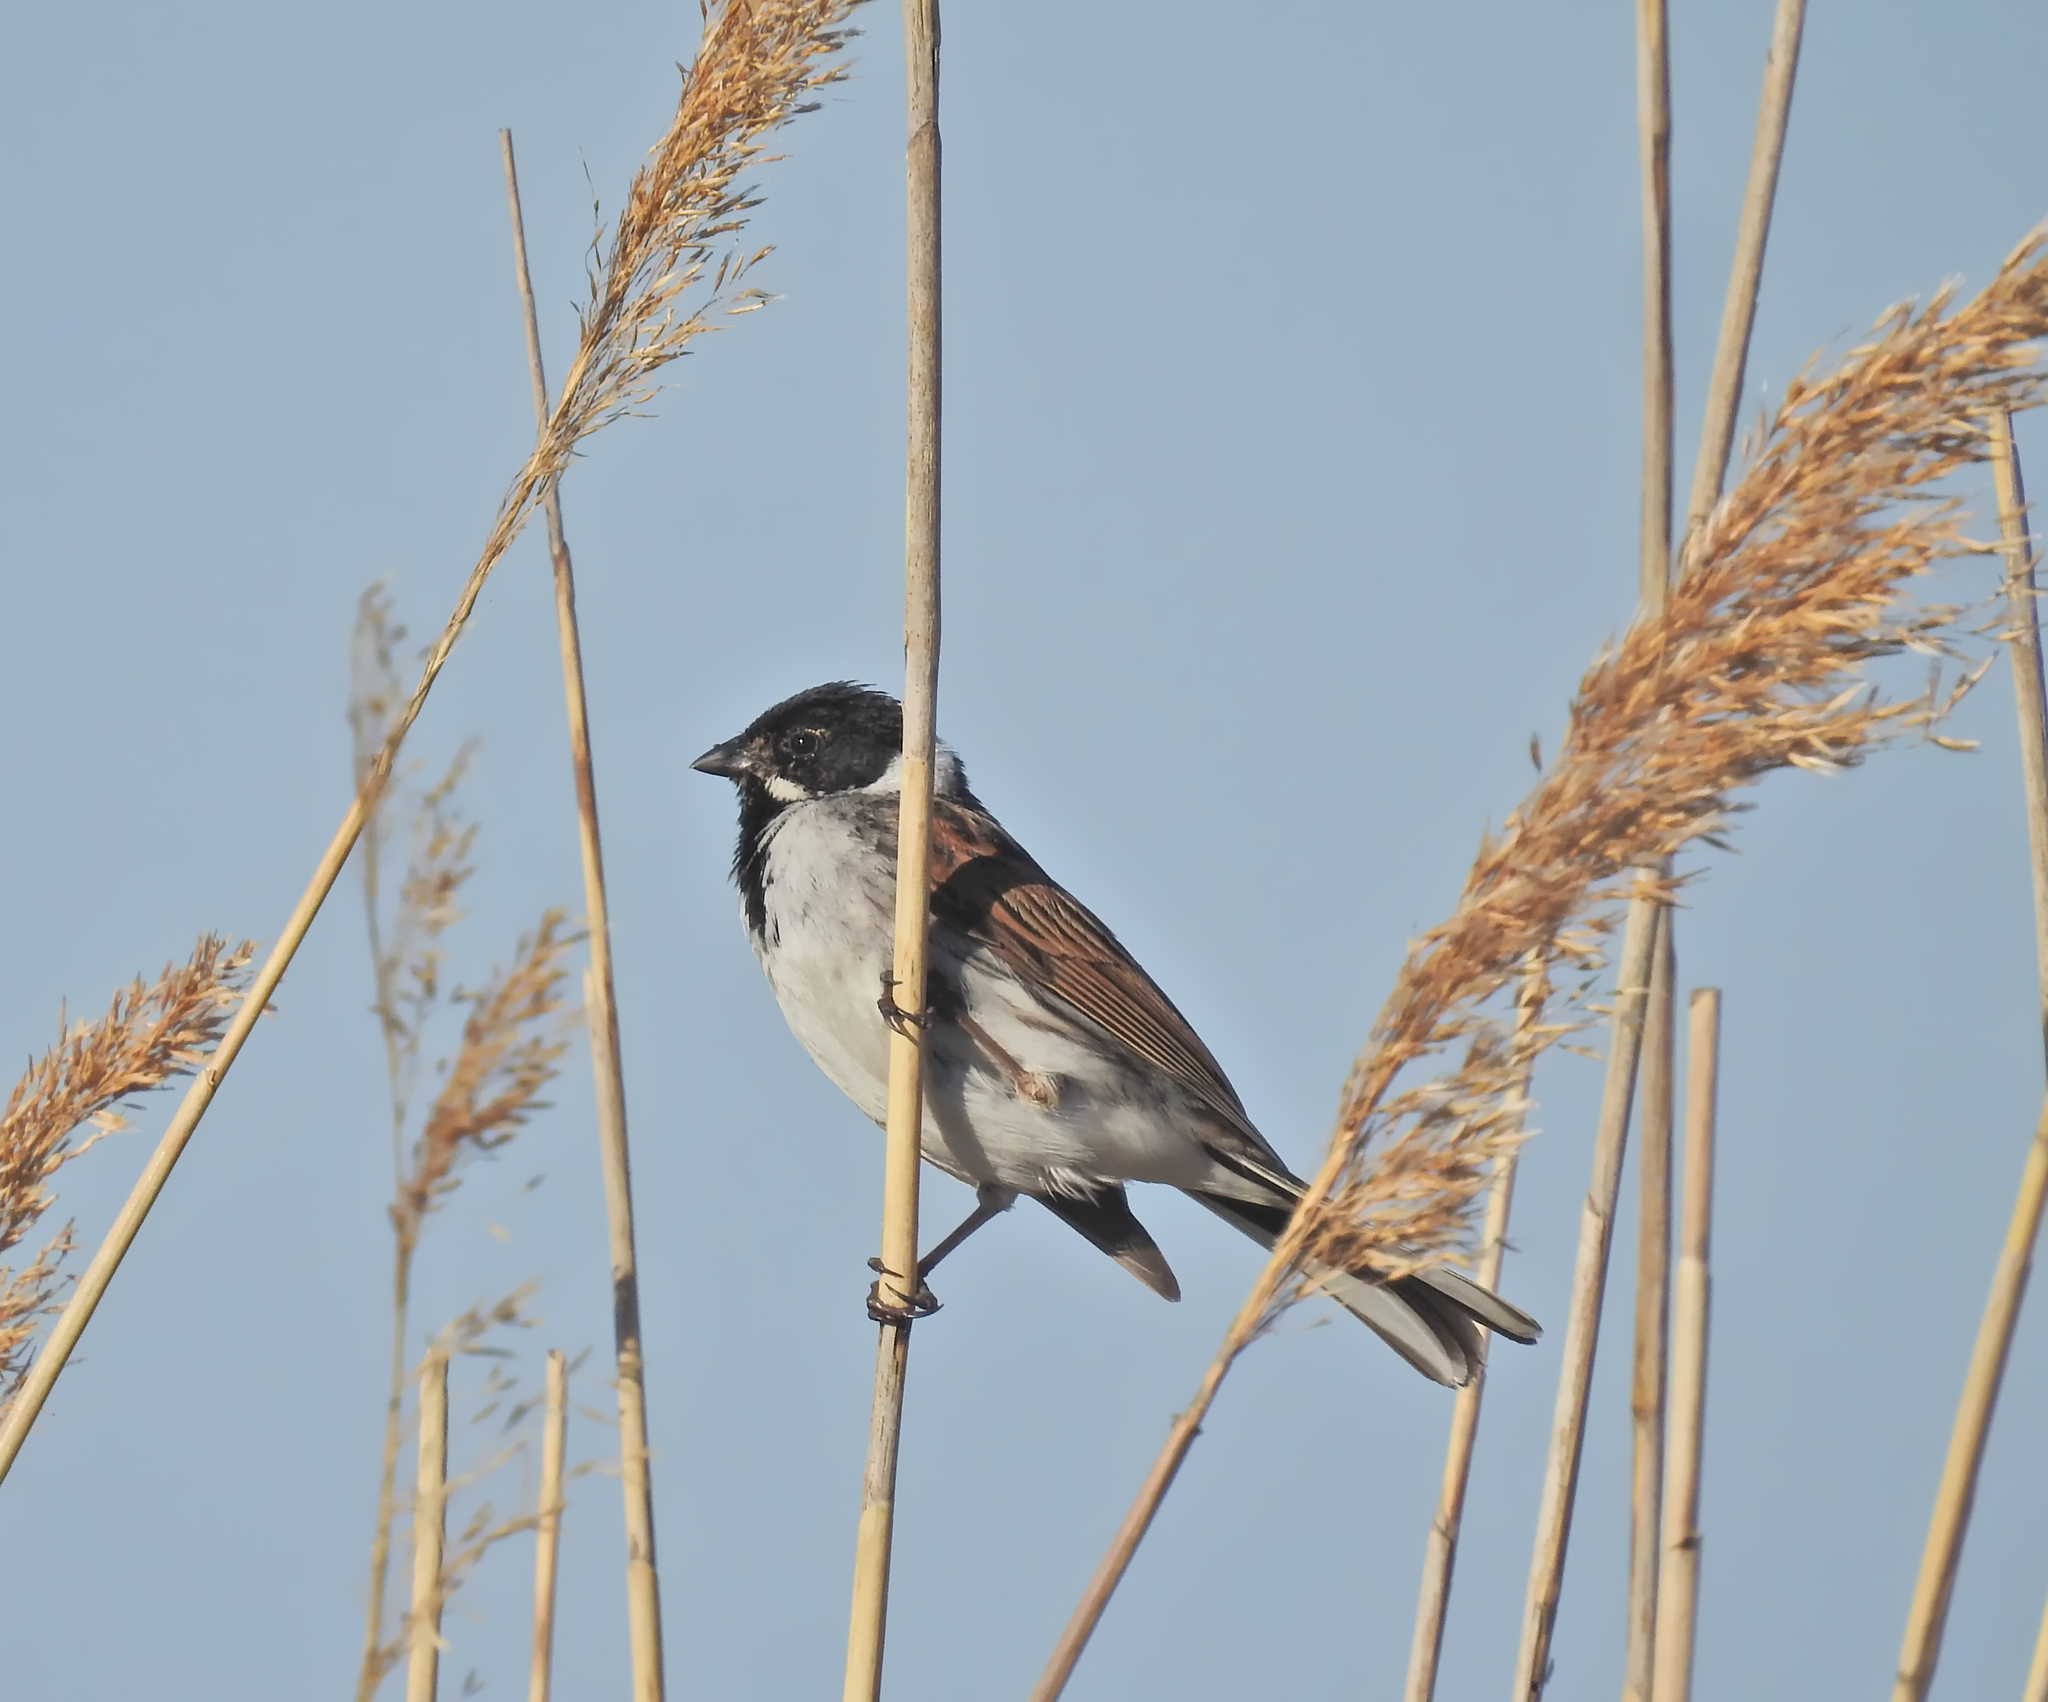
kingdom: Animalia
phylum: Chordata
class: Aves
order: Passeriformes
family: Emberizidae
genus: Emberiza
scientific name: Emberiza schoeniclus
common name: Reed bunting
